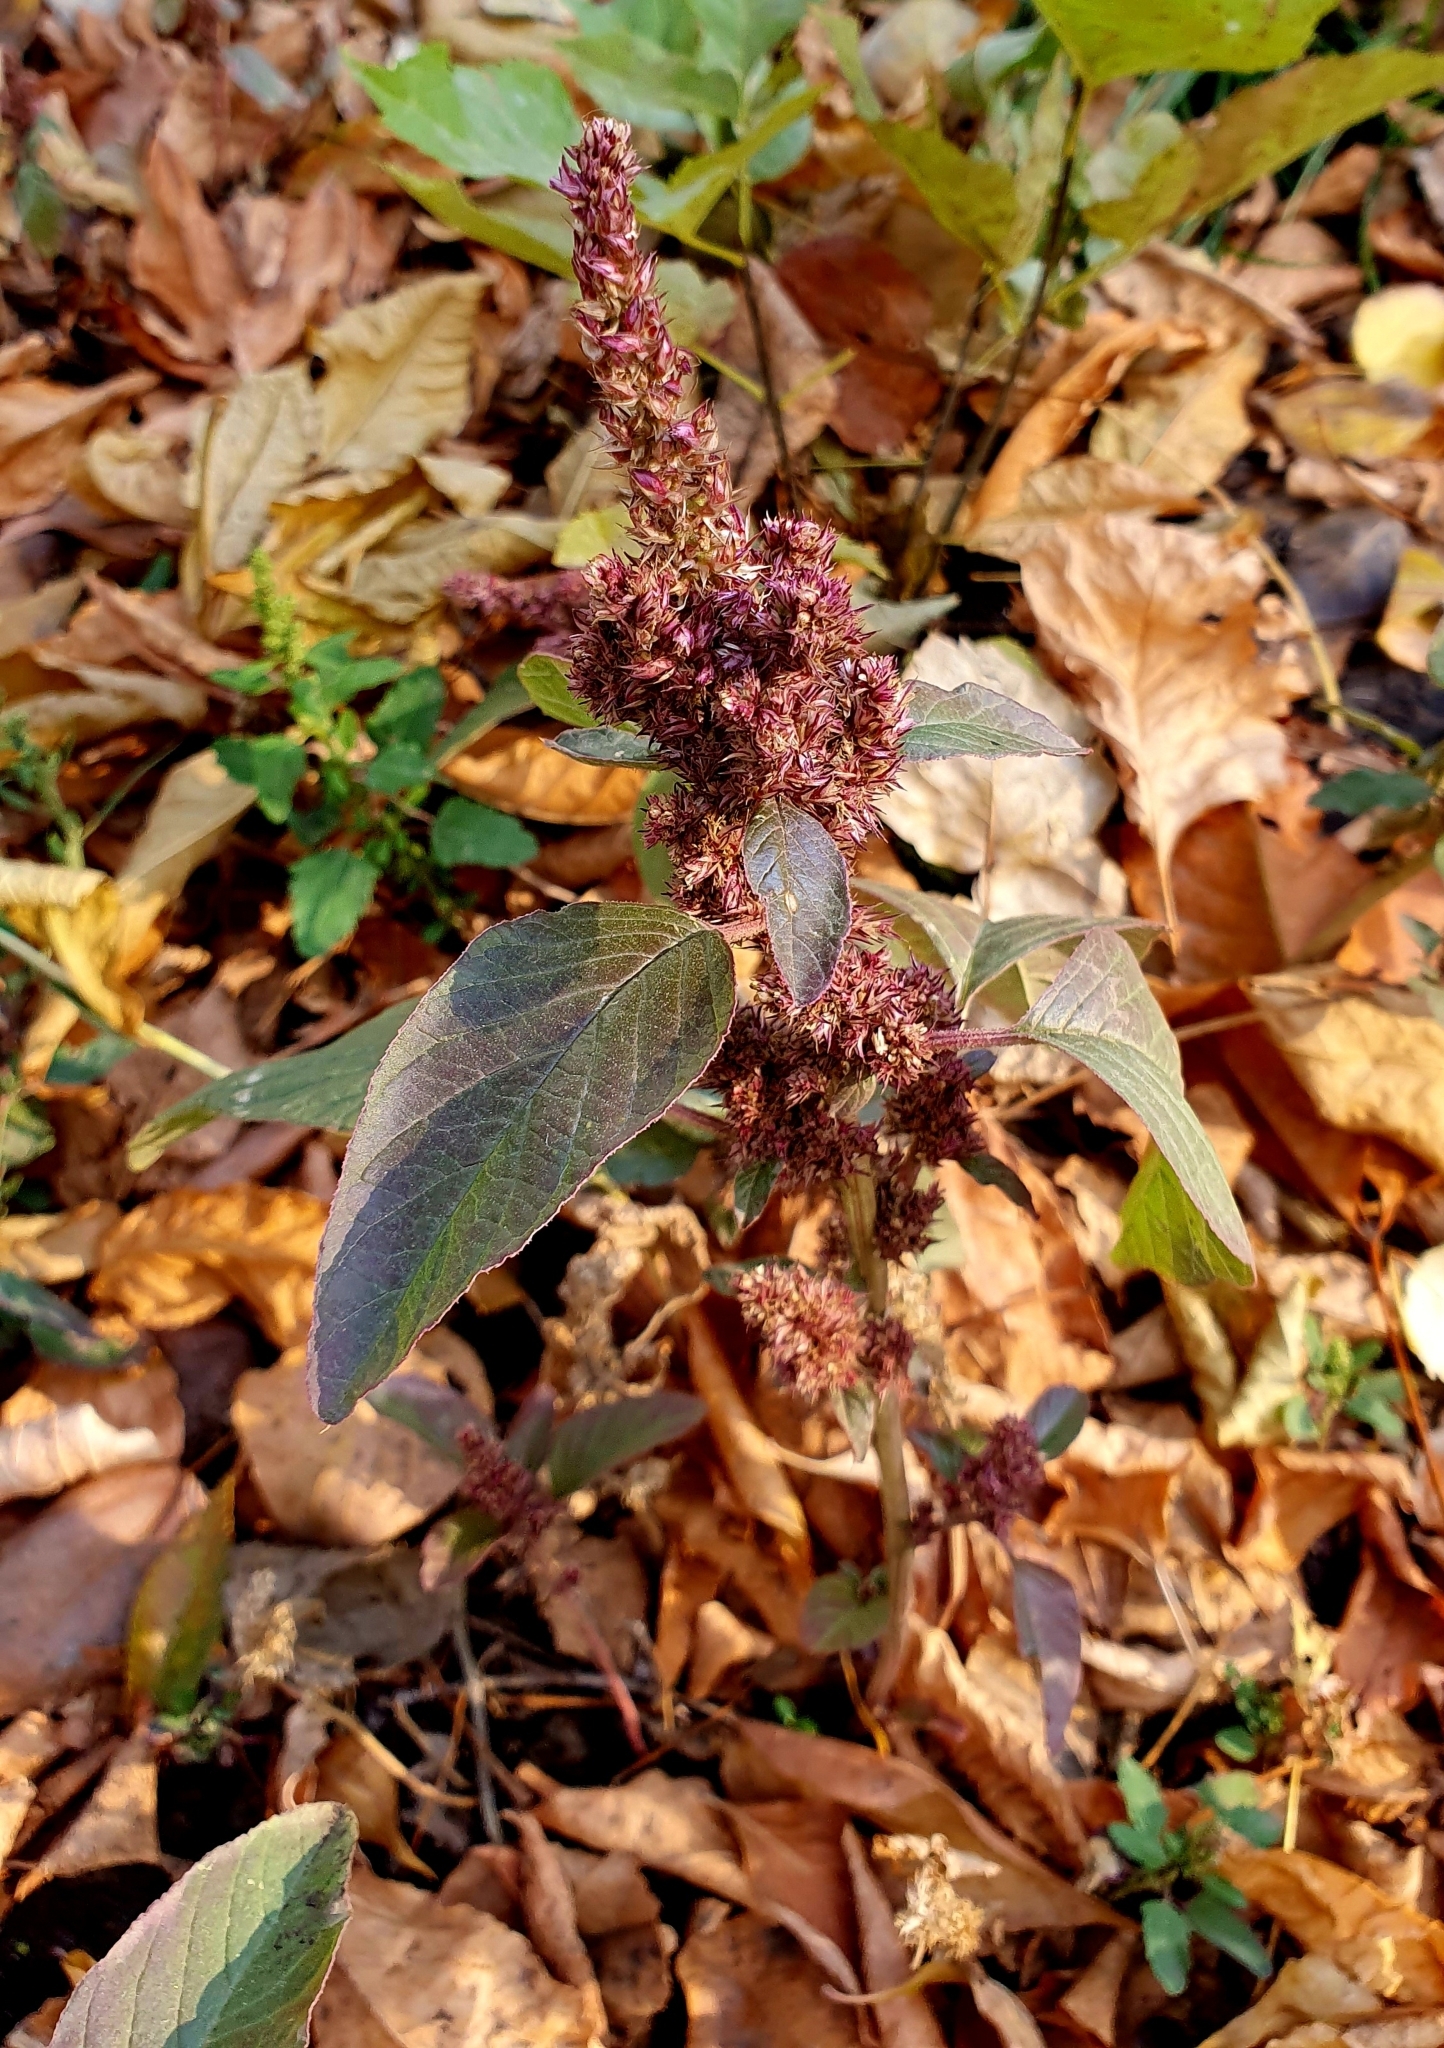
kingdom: Plantae
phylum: Tracheophyta
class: Magnoliopsida
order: Caryophyllales
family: Amaranthaceae
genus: Amaranthus
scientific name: Amaranthus retroflexus
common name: Redroot amaranth
